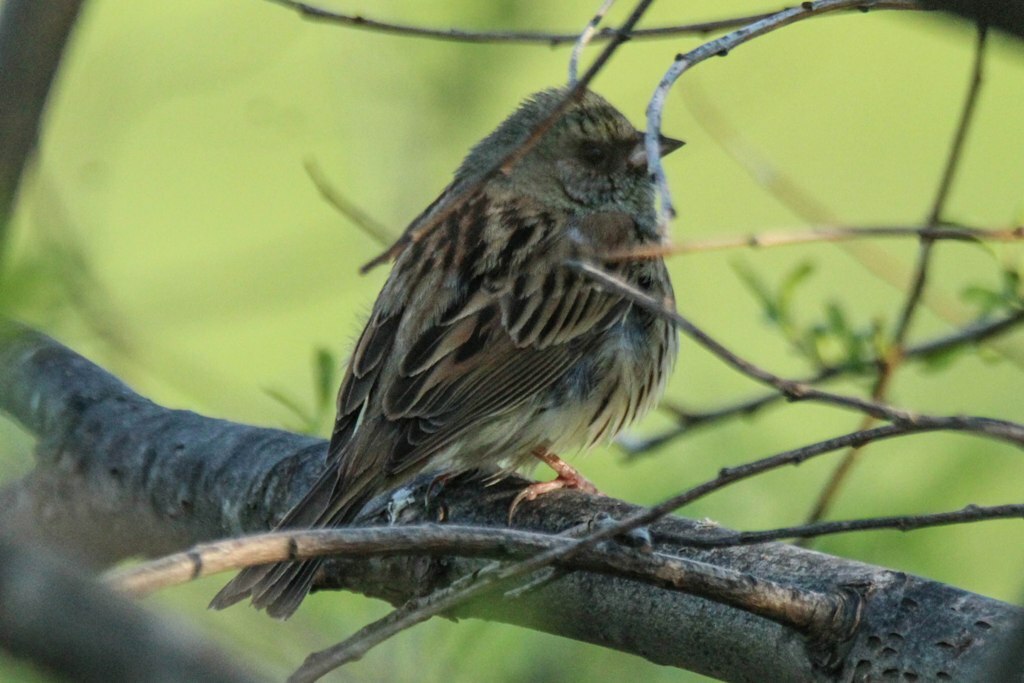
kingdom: Animalia
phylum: Chordata
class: Aves
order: Passeriformes
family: Emberizidae
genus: Emberiza
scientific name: Emberiza spodocephala
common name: Black-faced bunting
